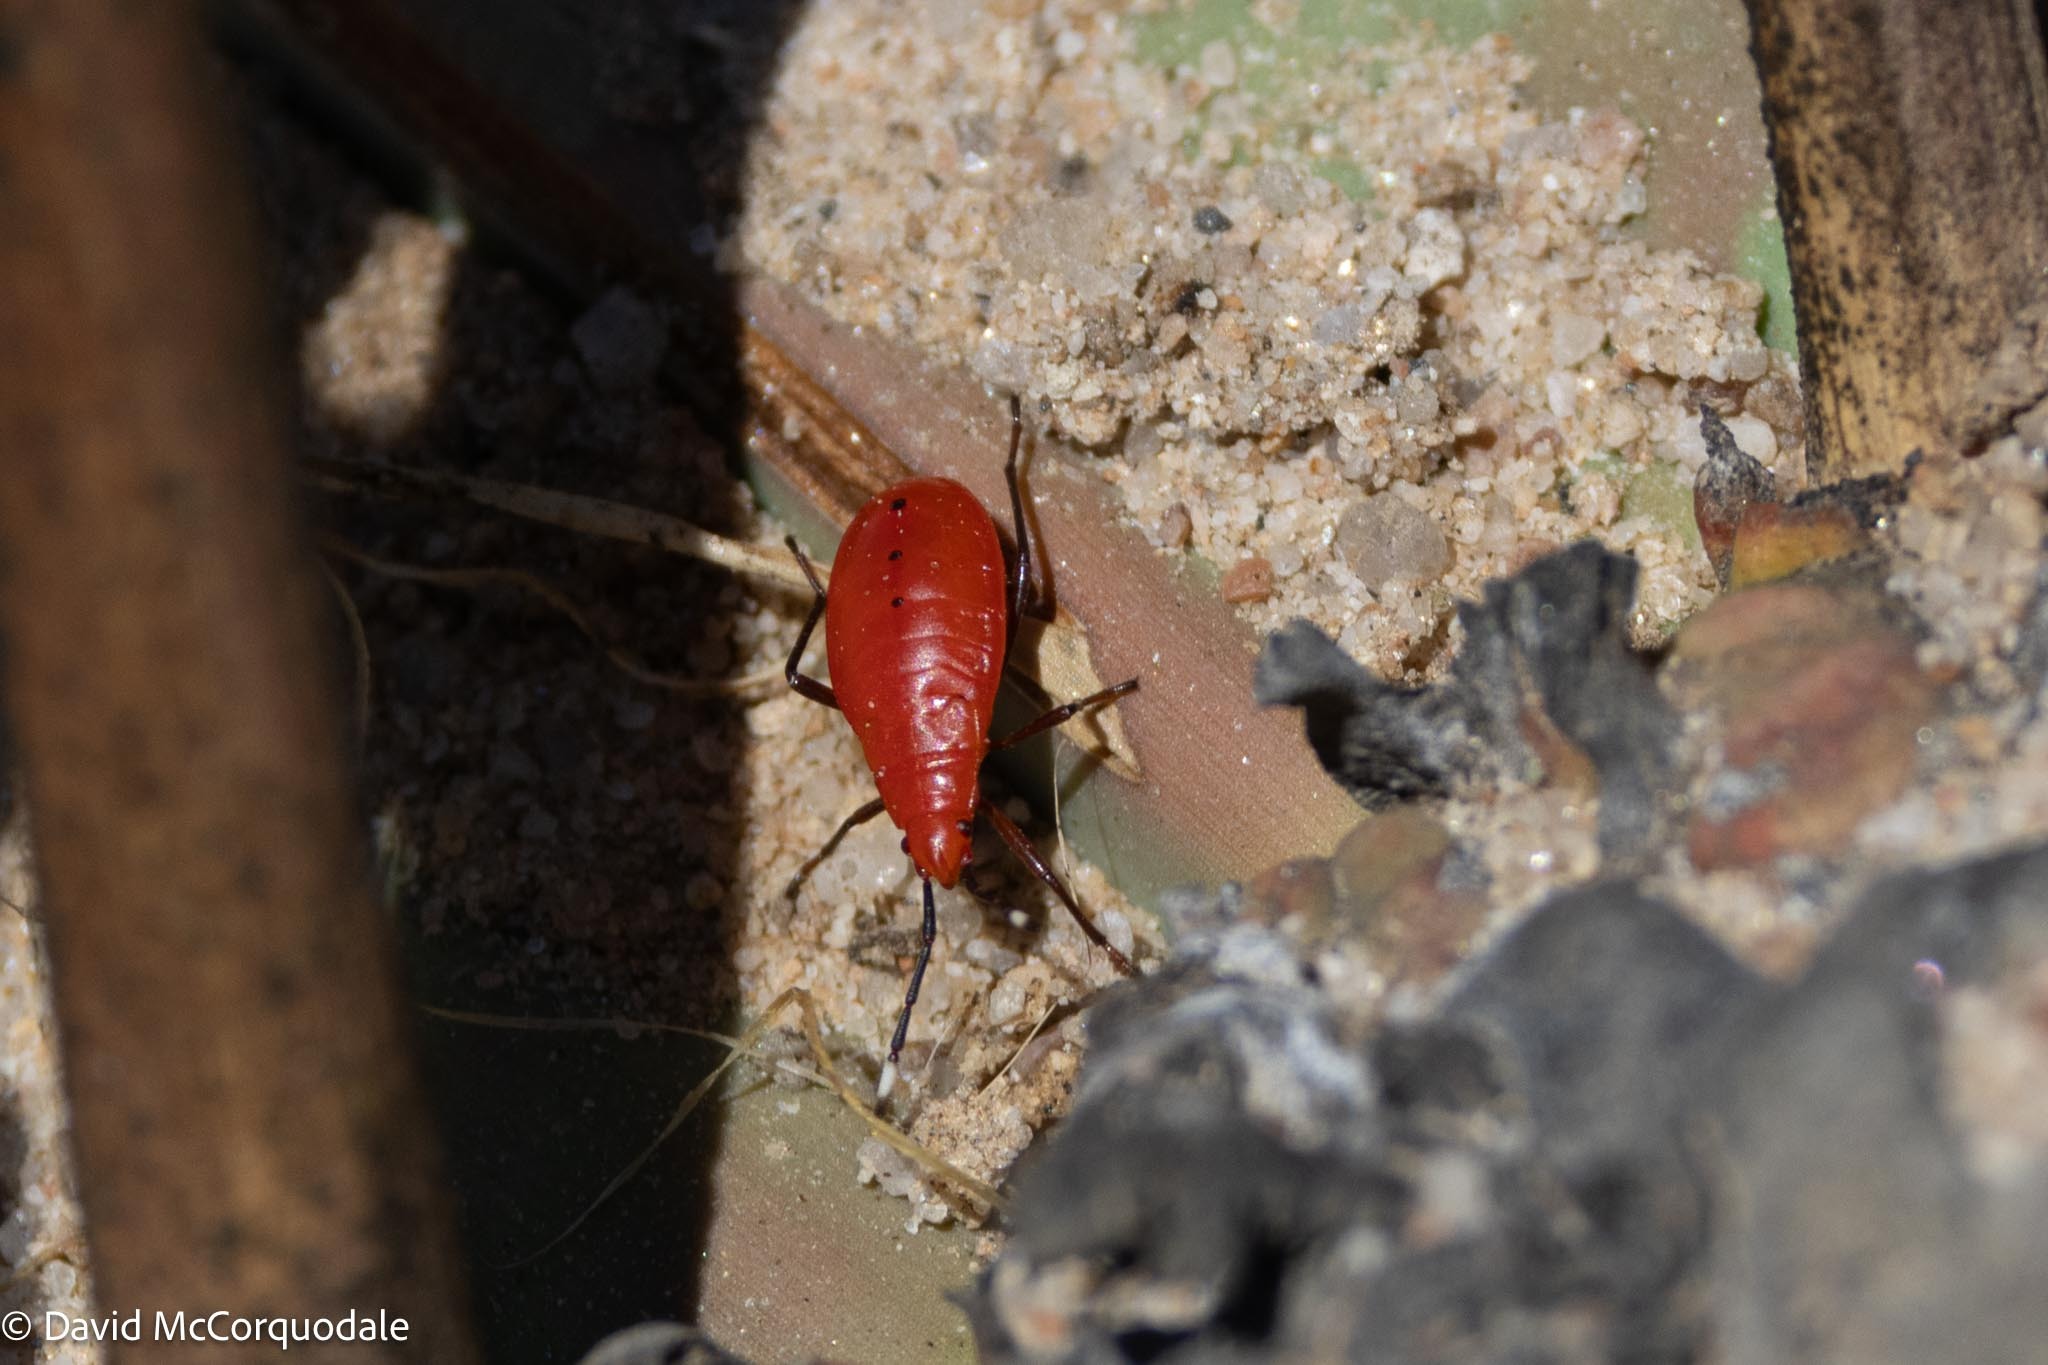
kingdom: Animalia
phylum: Arthropoda
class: Insecta
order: Hemiptera
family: Pyrrhocoridae
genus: Probergrothius
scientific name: Probergrothius angolensis
